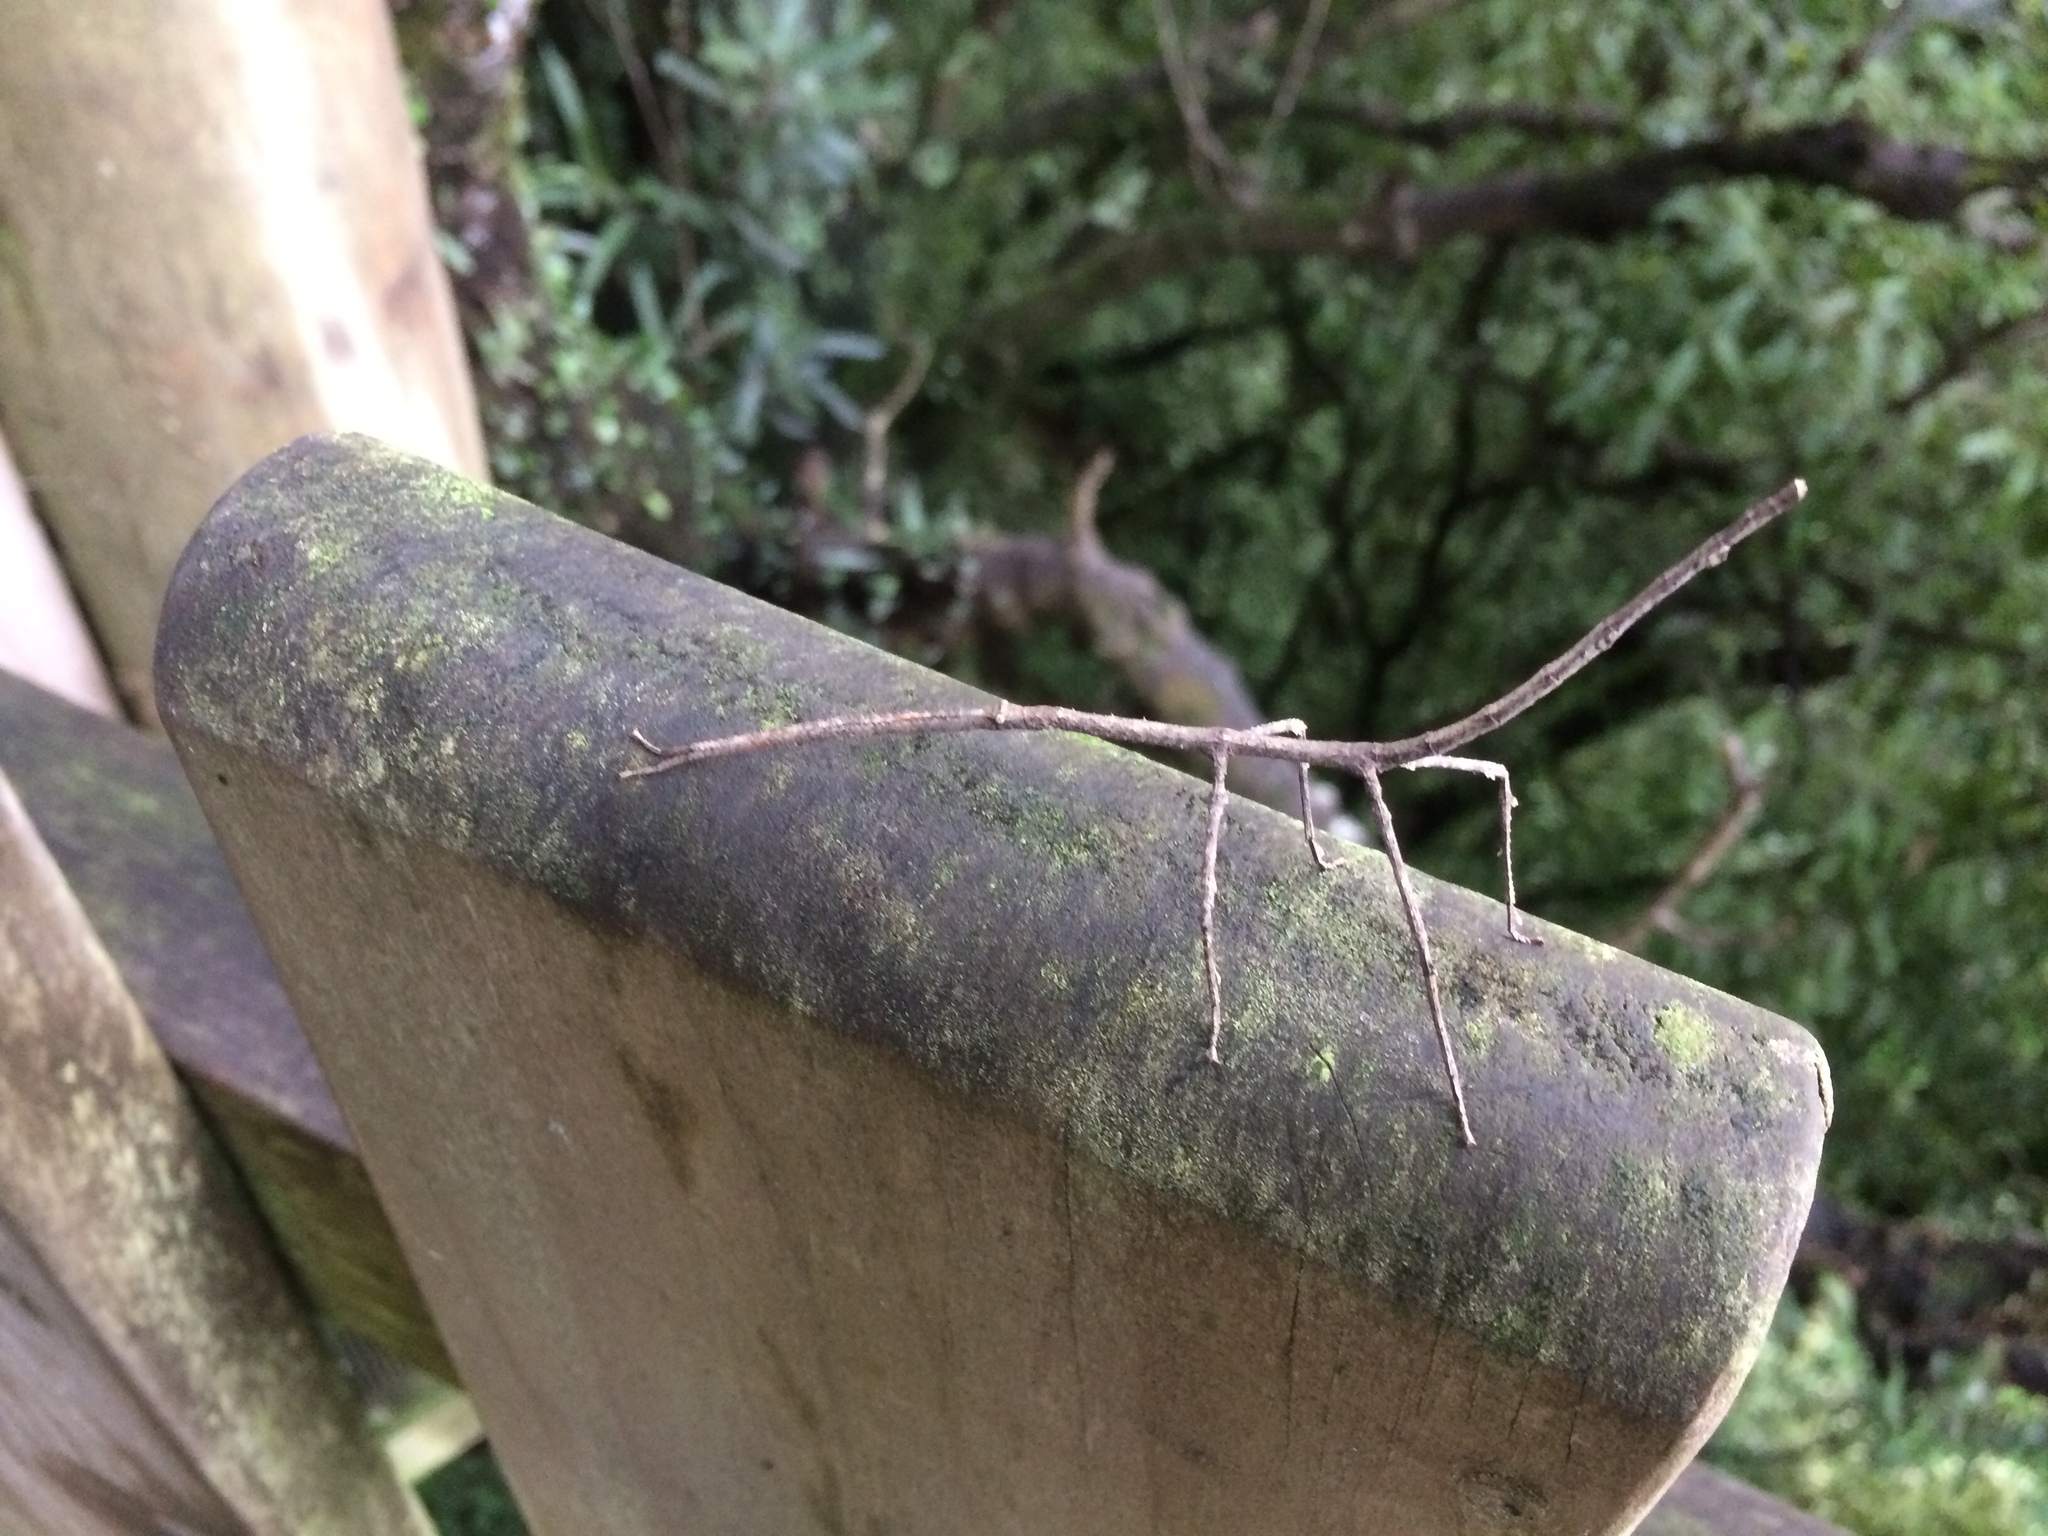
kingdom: Animalia
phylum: Arthropoda
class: Insecta
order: Phasmida
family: Phasmatidae
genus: Argosarchus
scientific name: Argosarchus horridus
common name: Bristly stick insect
